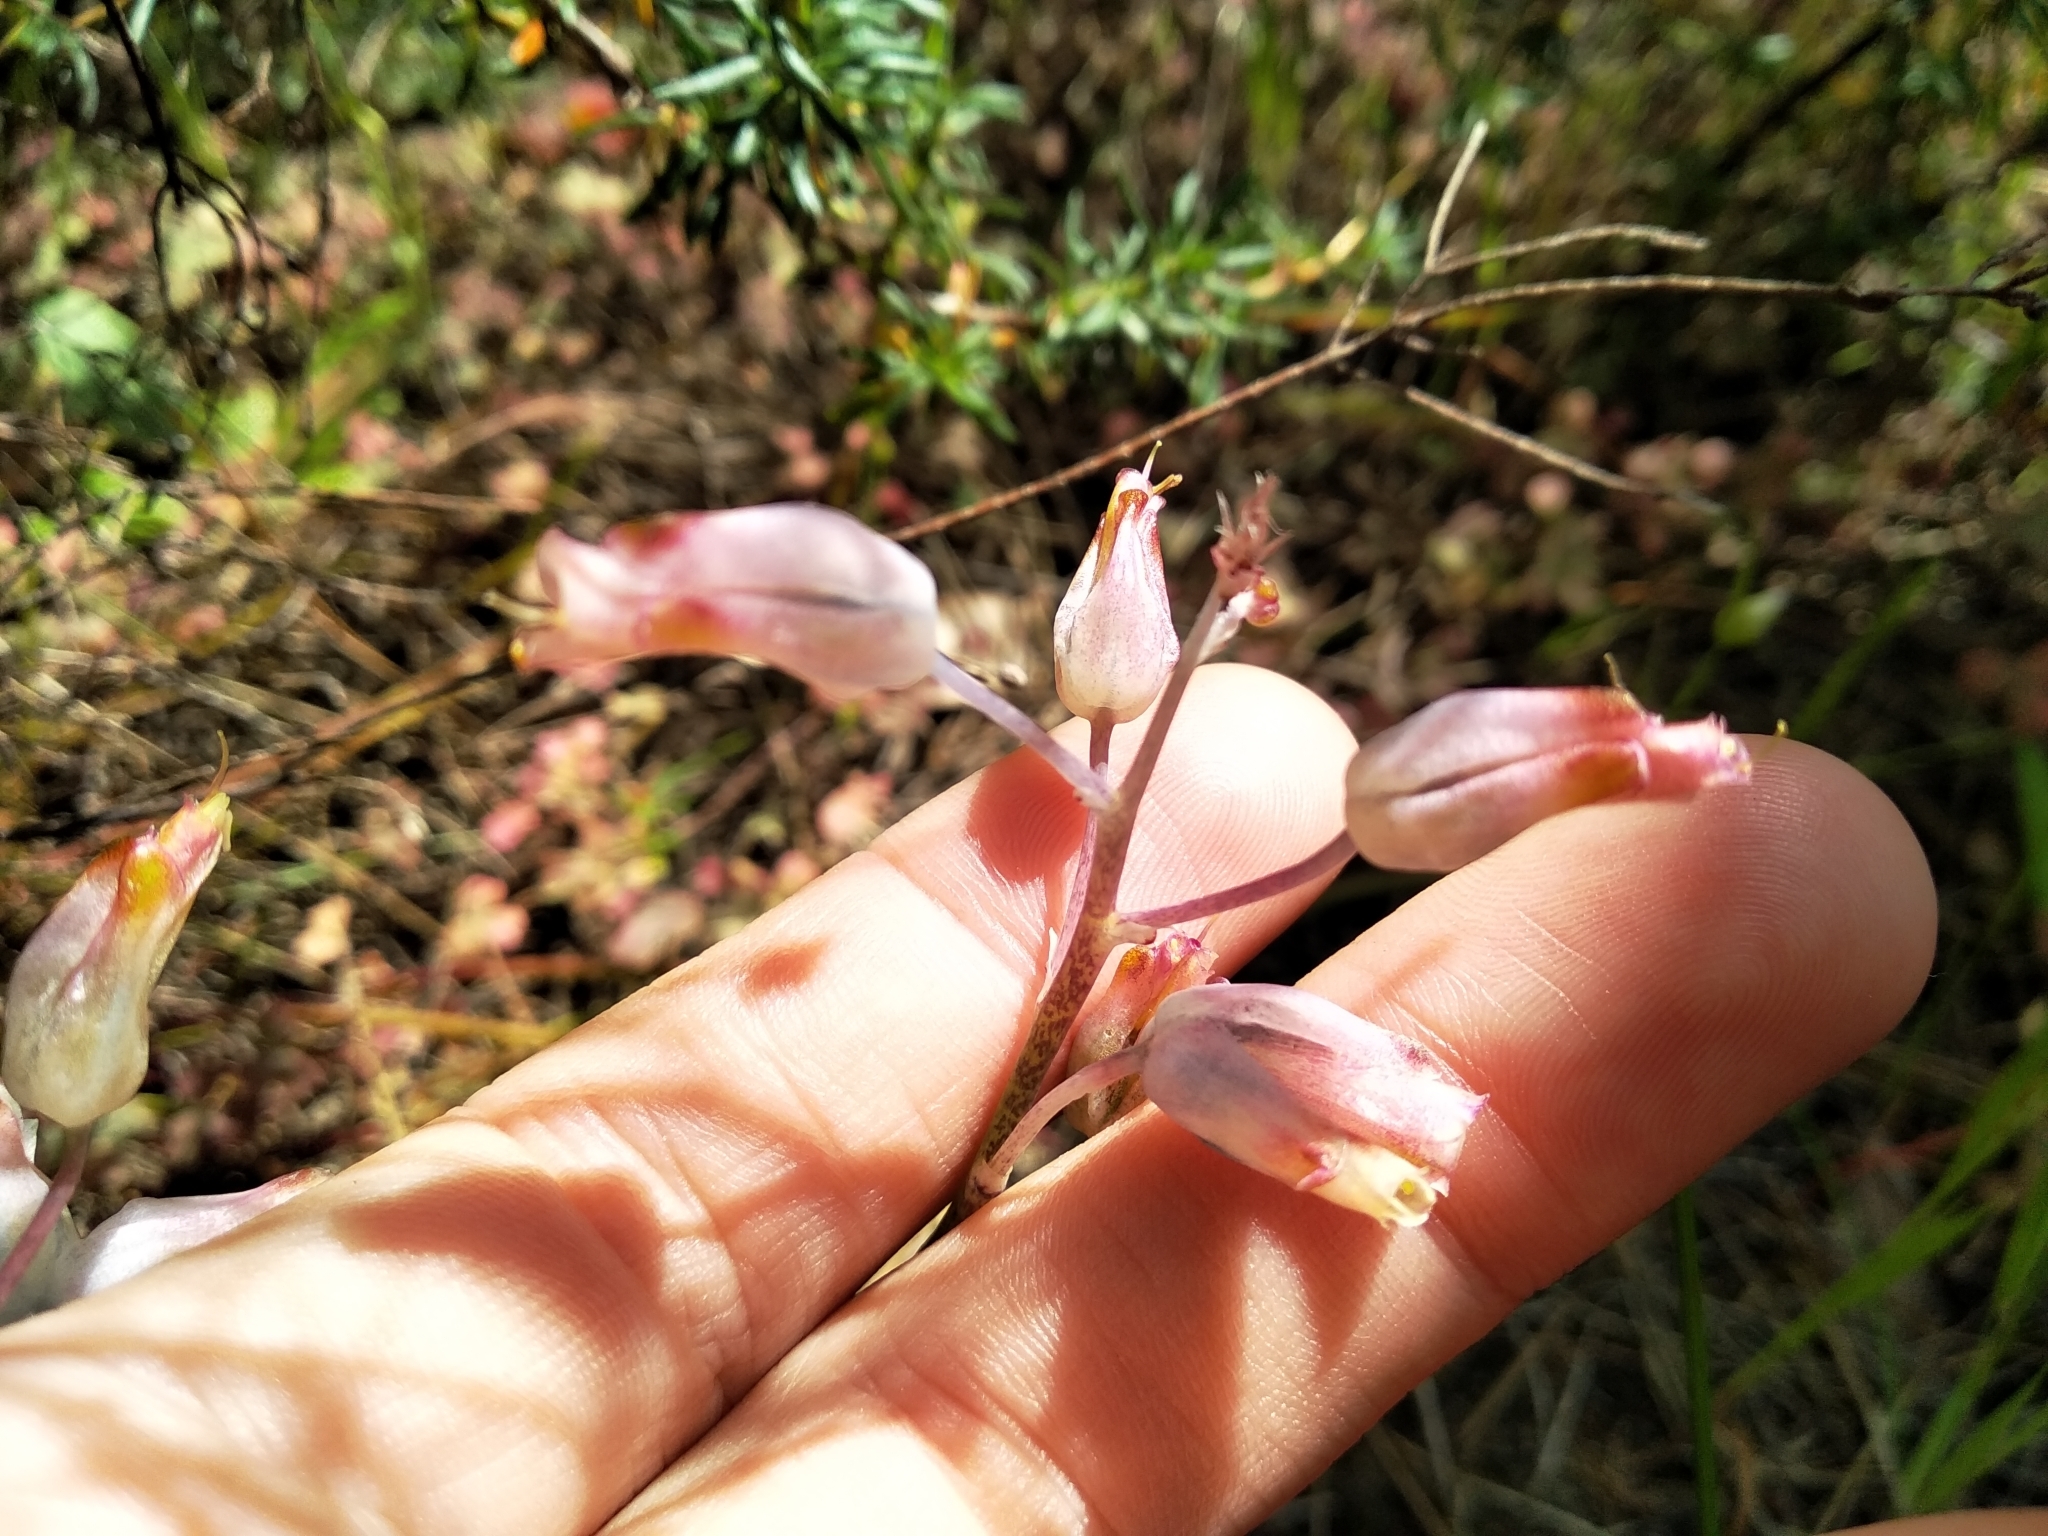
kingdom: Plantae
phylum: Tracheophyta
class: Liliopsida
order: Asparagales
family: Asparagaceae
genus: Lachenalia
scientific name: Lachenalia unifolia
